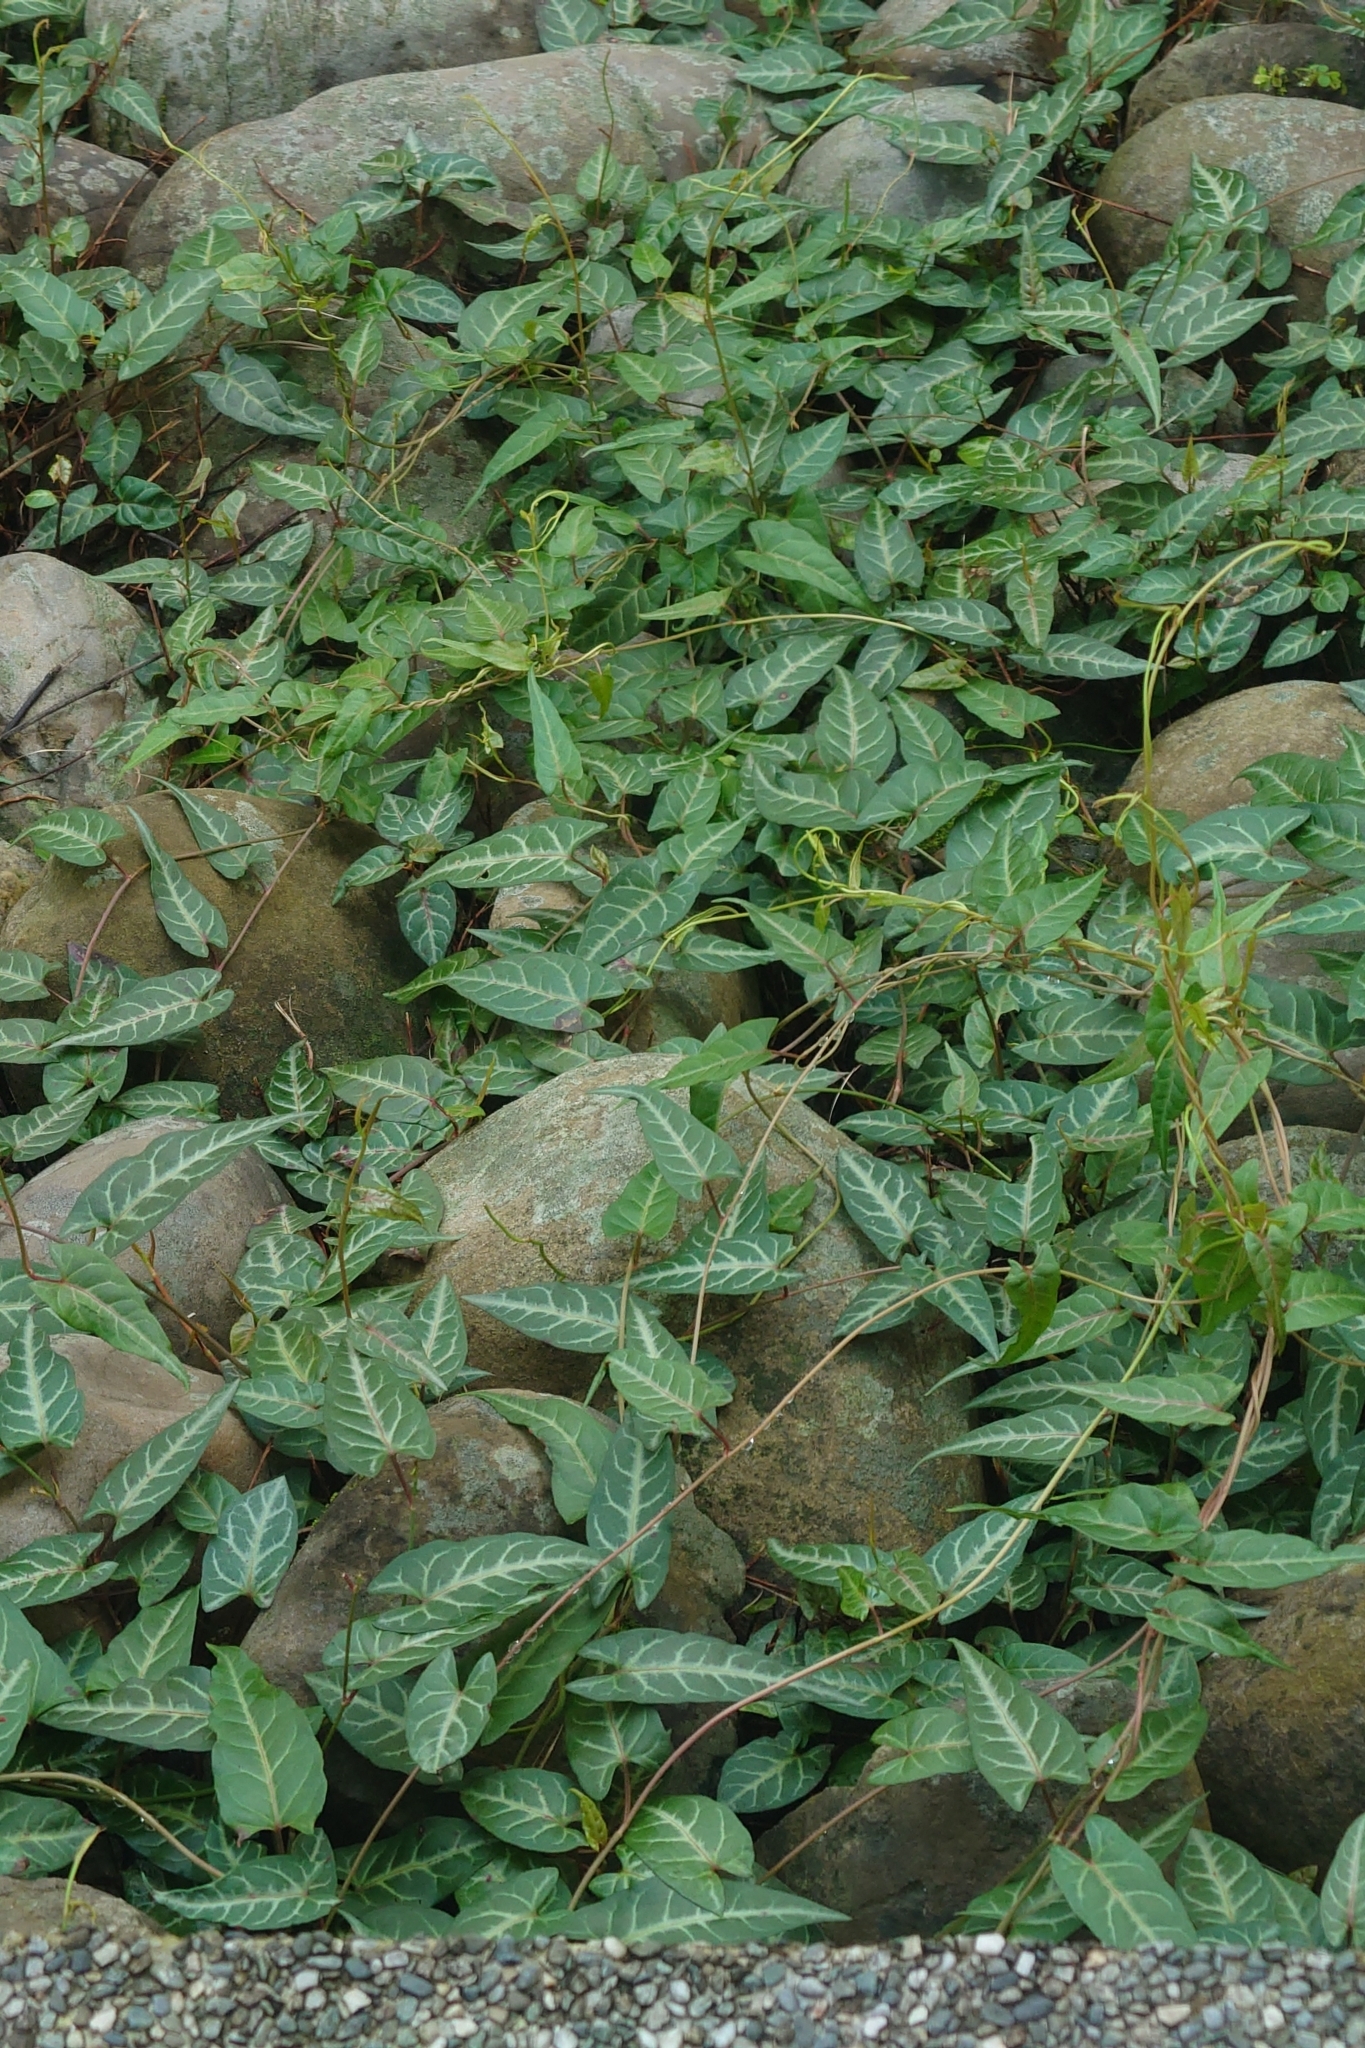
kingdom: Plantae
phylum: Tracheophyta
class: Magnoliopsida
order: Caryophyllales
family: Polygonaceae
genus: Reynoutria
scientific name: Reynoutria multiflora
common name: Chinese fleeceflower
